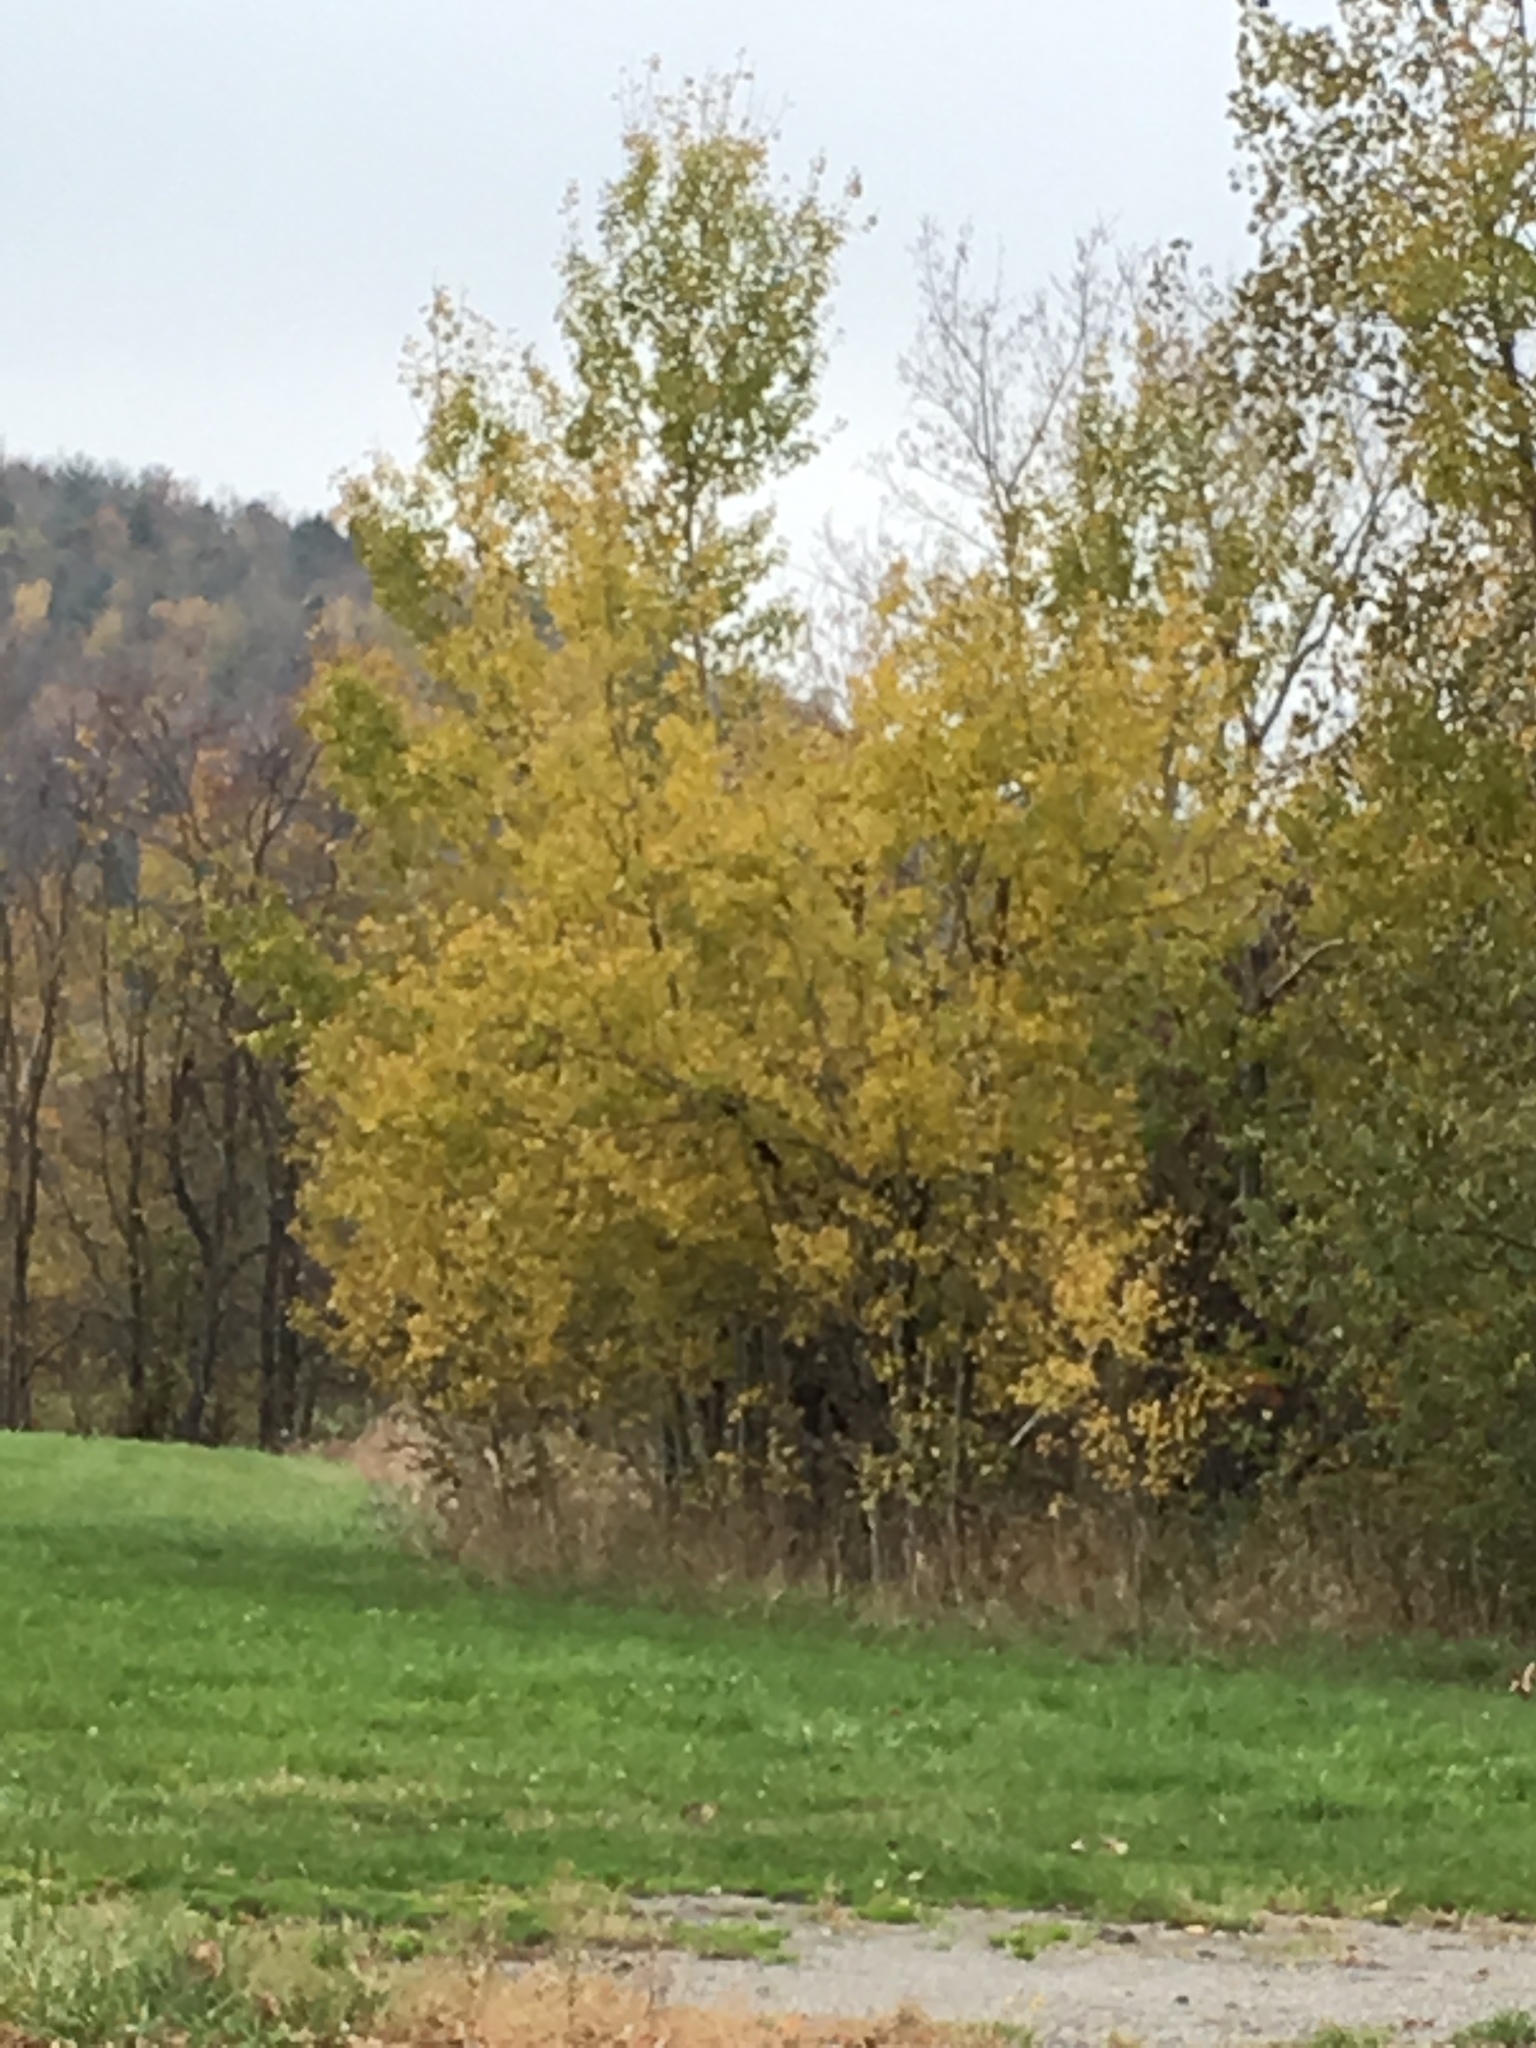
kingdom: Plantae
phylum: Tracheophyta
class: Magnoliopsida
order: Malpighiales
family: Salicaceae
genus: Populus
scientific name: Populus tremuloides
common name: Quaking aspen
